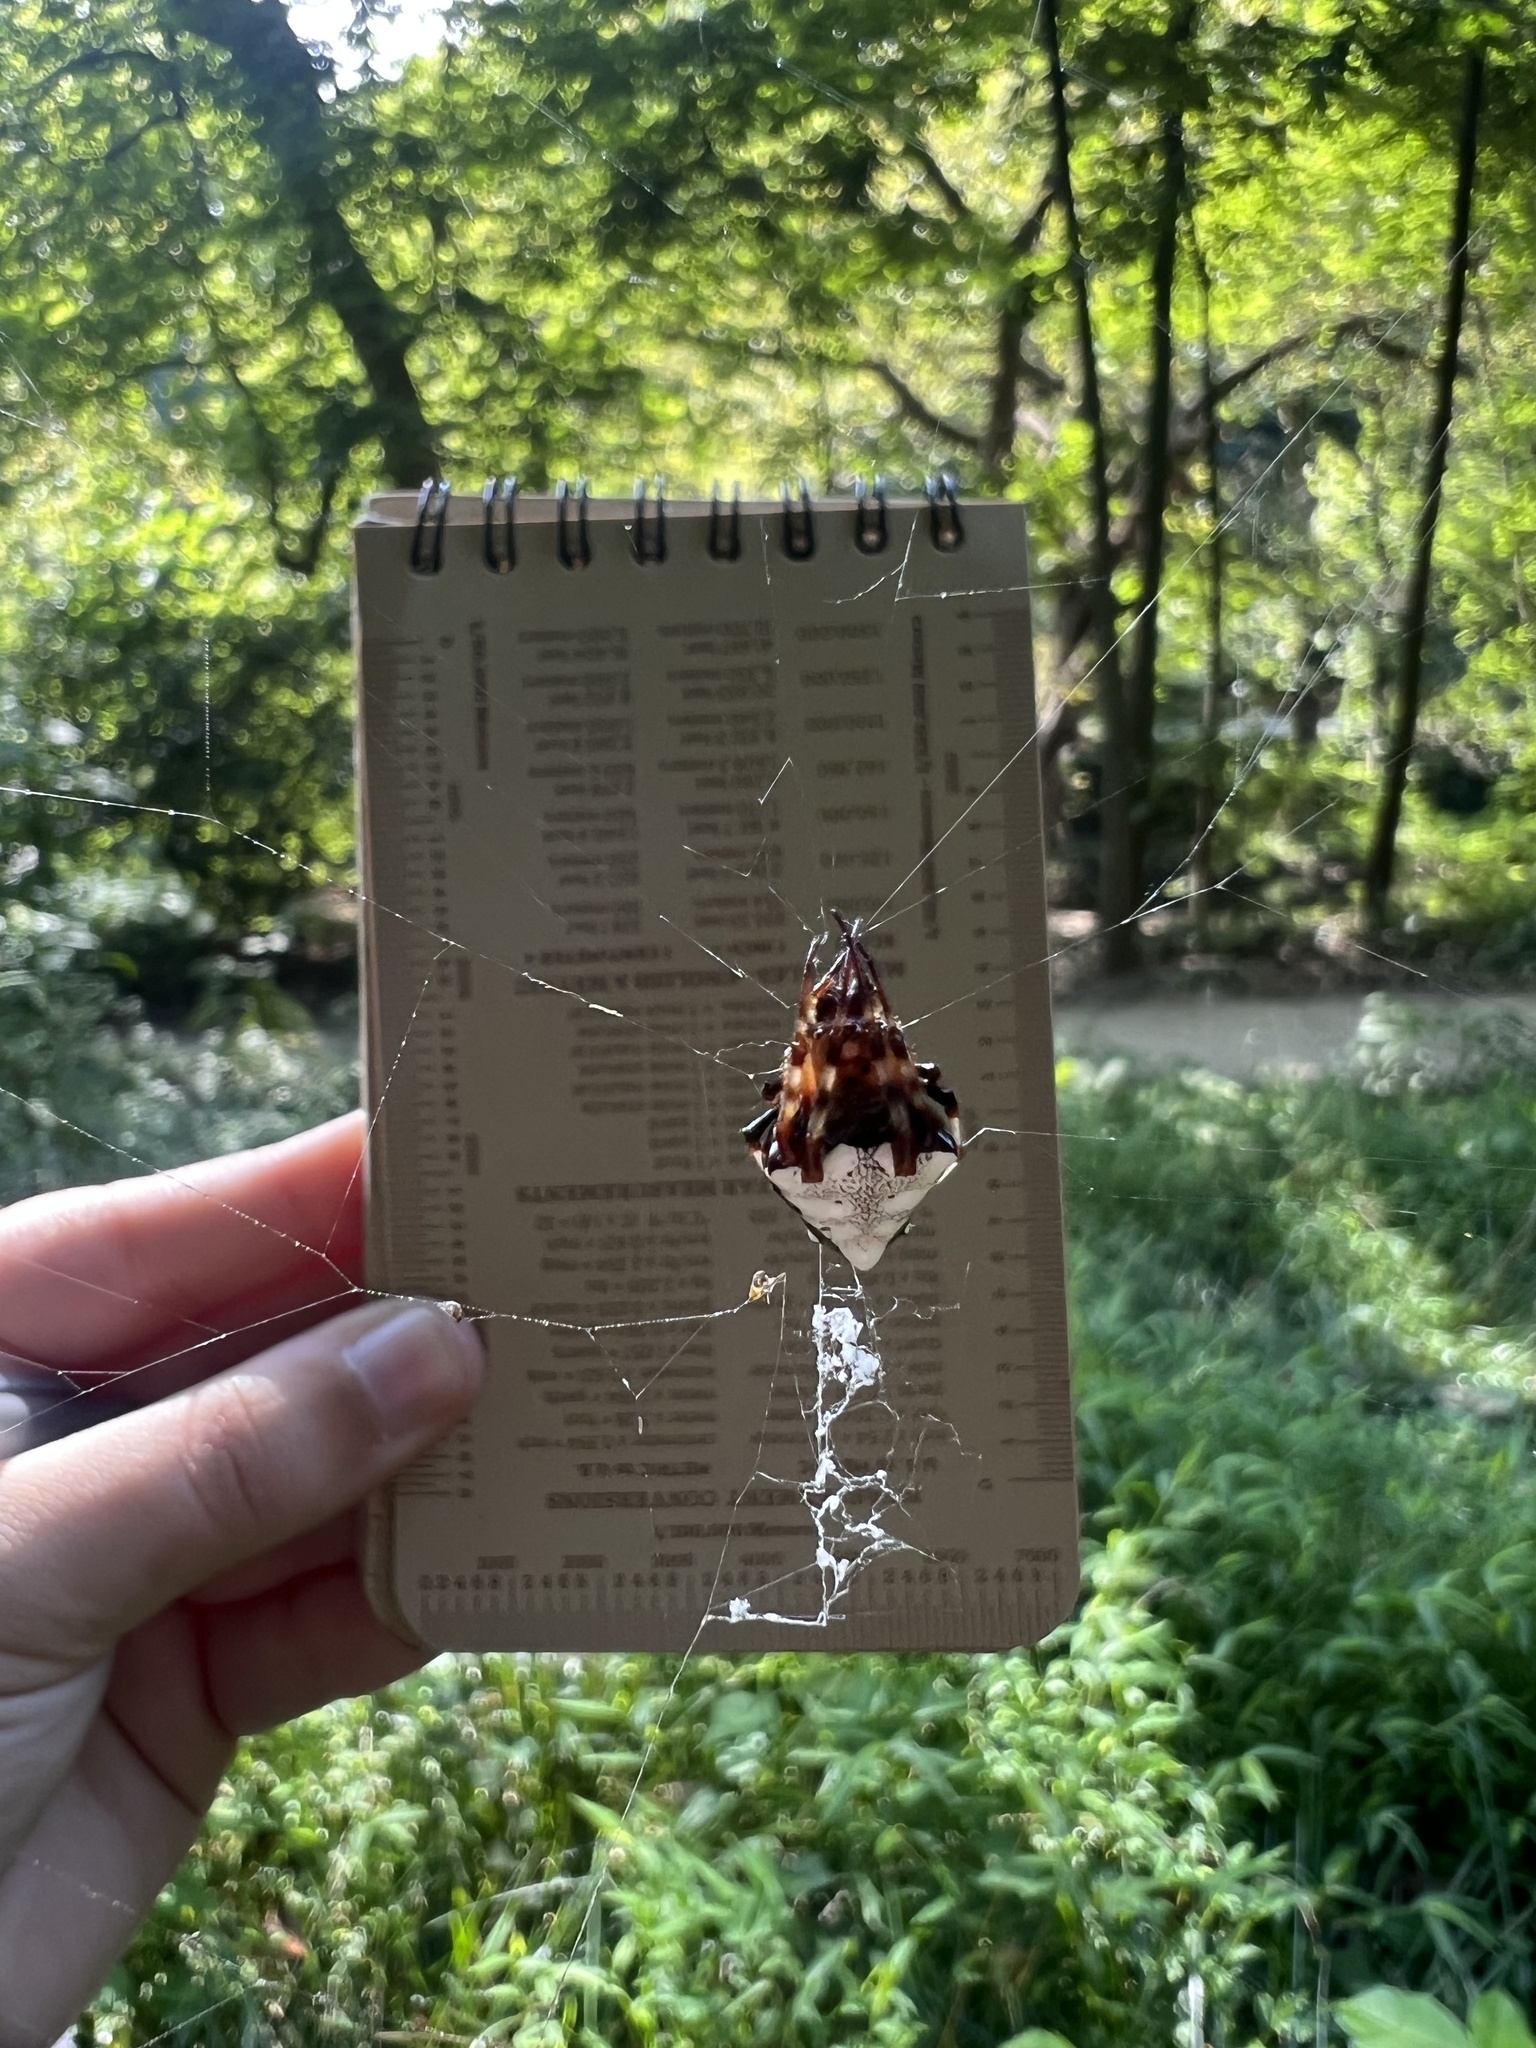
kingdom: Animalia
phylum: Arthropoda
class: Arachnida
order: Araneae
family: Araneidae
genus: Verrucosa
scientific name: Verrucosa arenata
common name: Orb weavers
